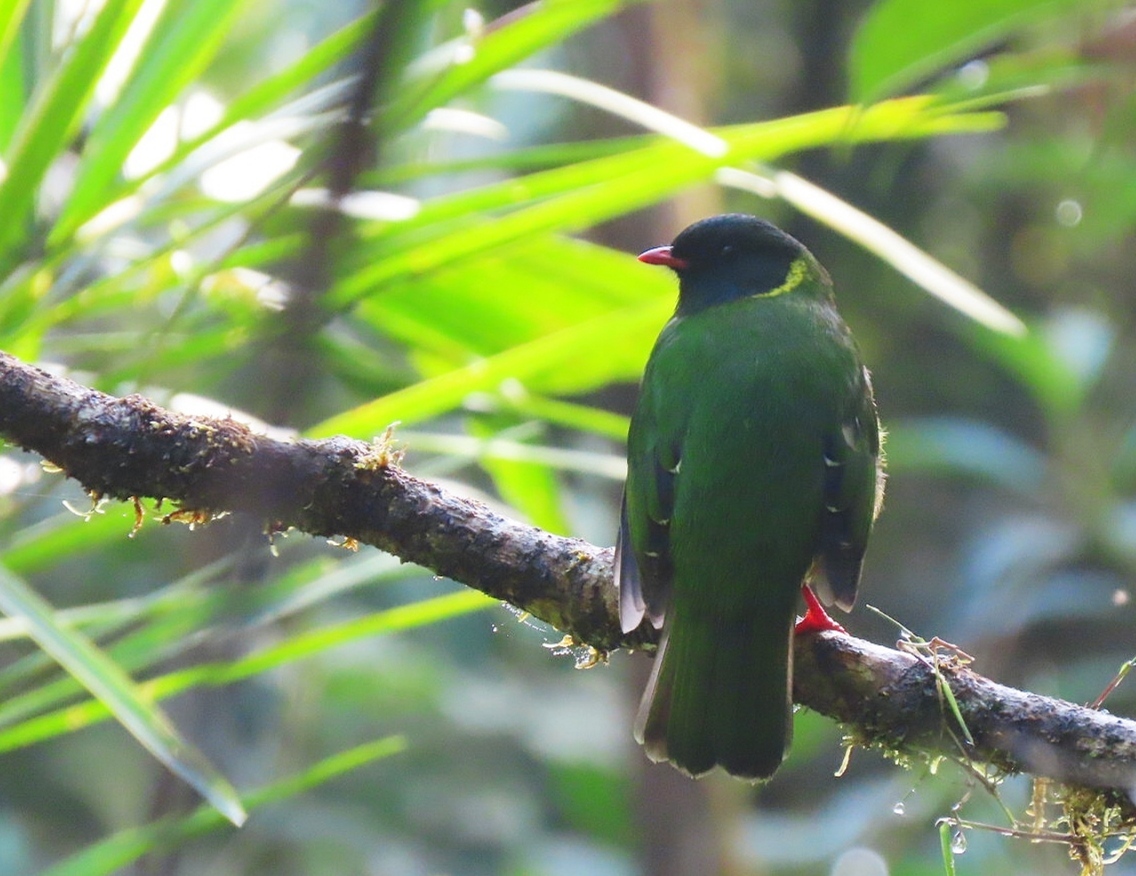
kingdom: Animalia
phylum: Chordata
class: Aves
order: Passeriformes
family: Cotingidae
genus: Pipreola
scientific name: Pipreola riefferii
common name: Green-and-black fruiteater
